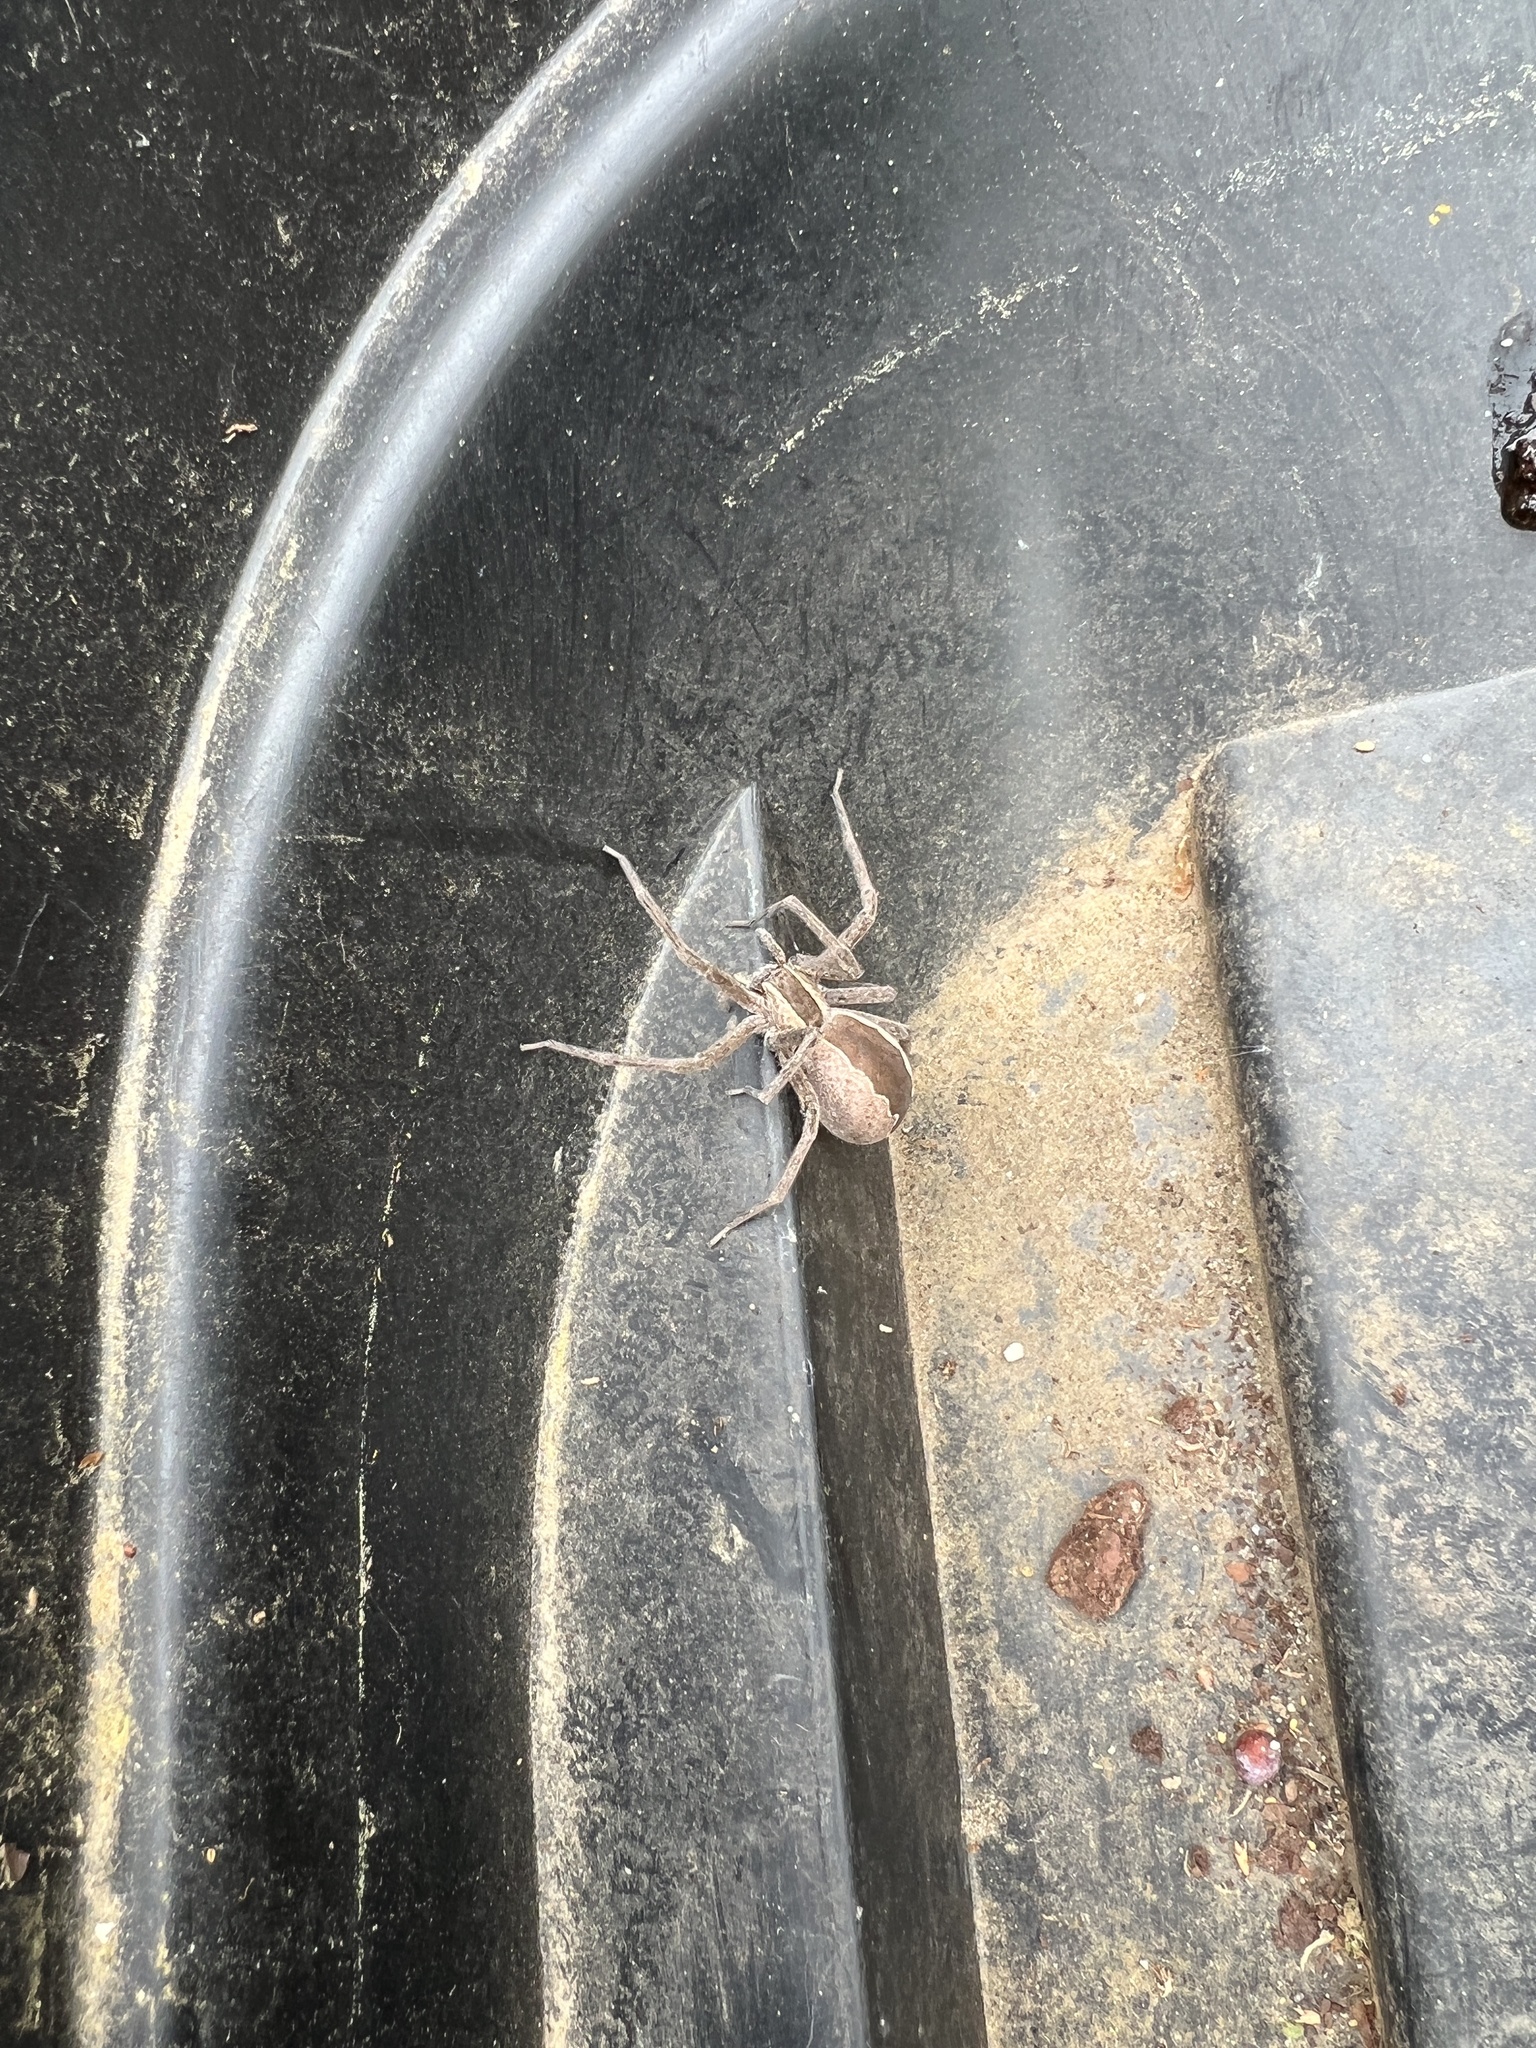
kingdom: Animalia
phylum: Arthropoda
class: Arachnida
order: Araneae
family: Pisauridae
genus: Pisaurina
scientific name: Pisaurina mira
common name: American nursery web spider
